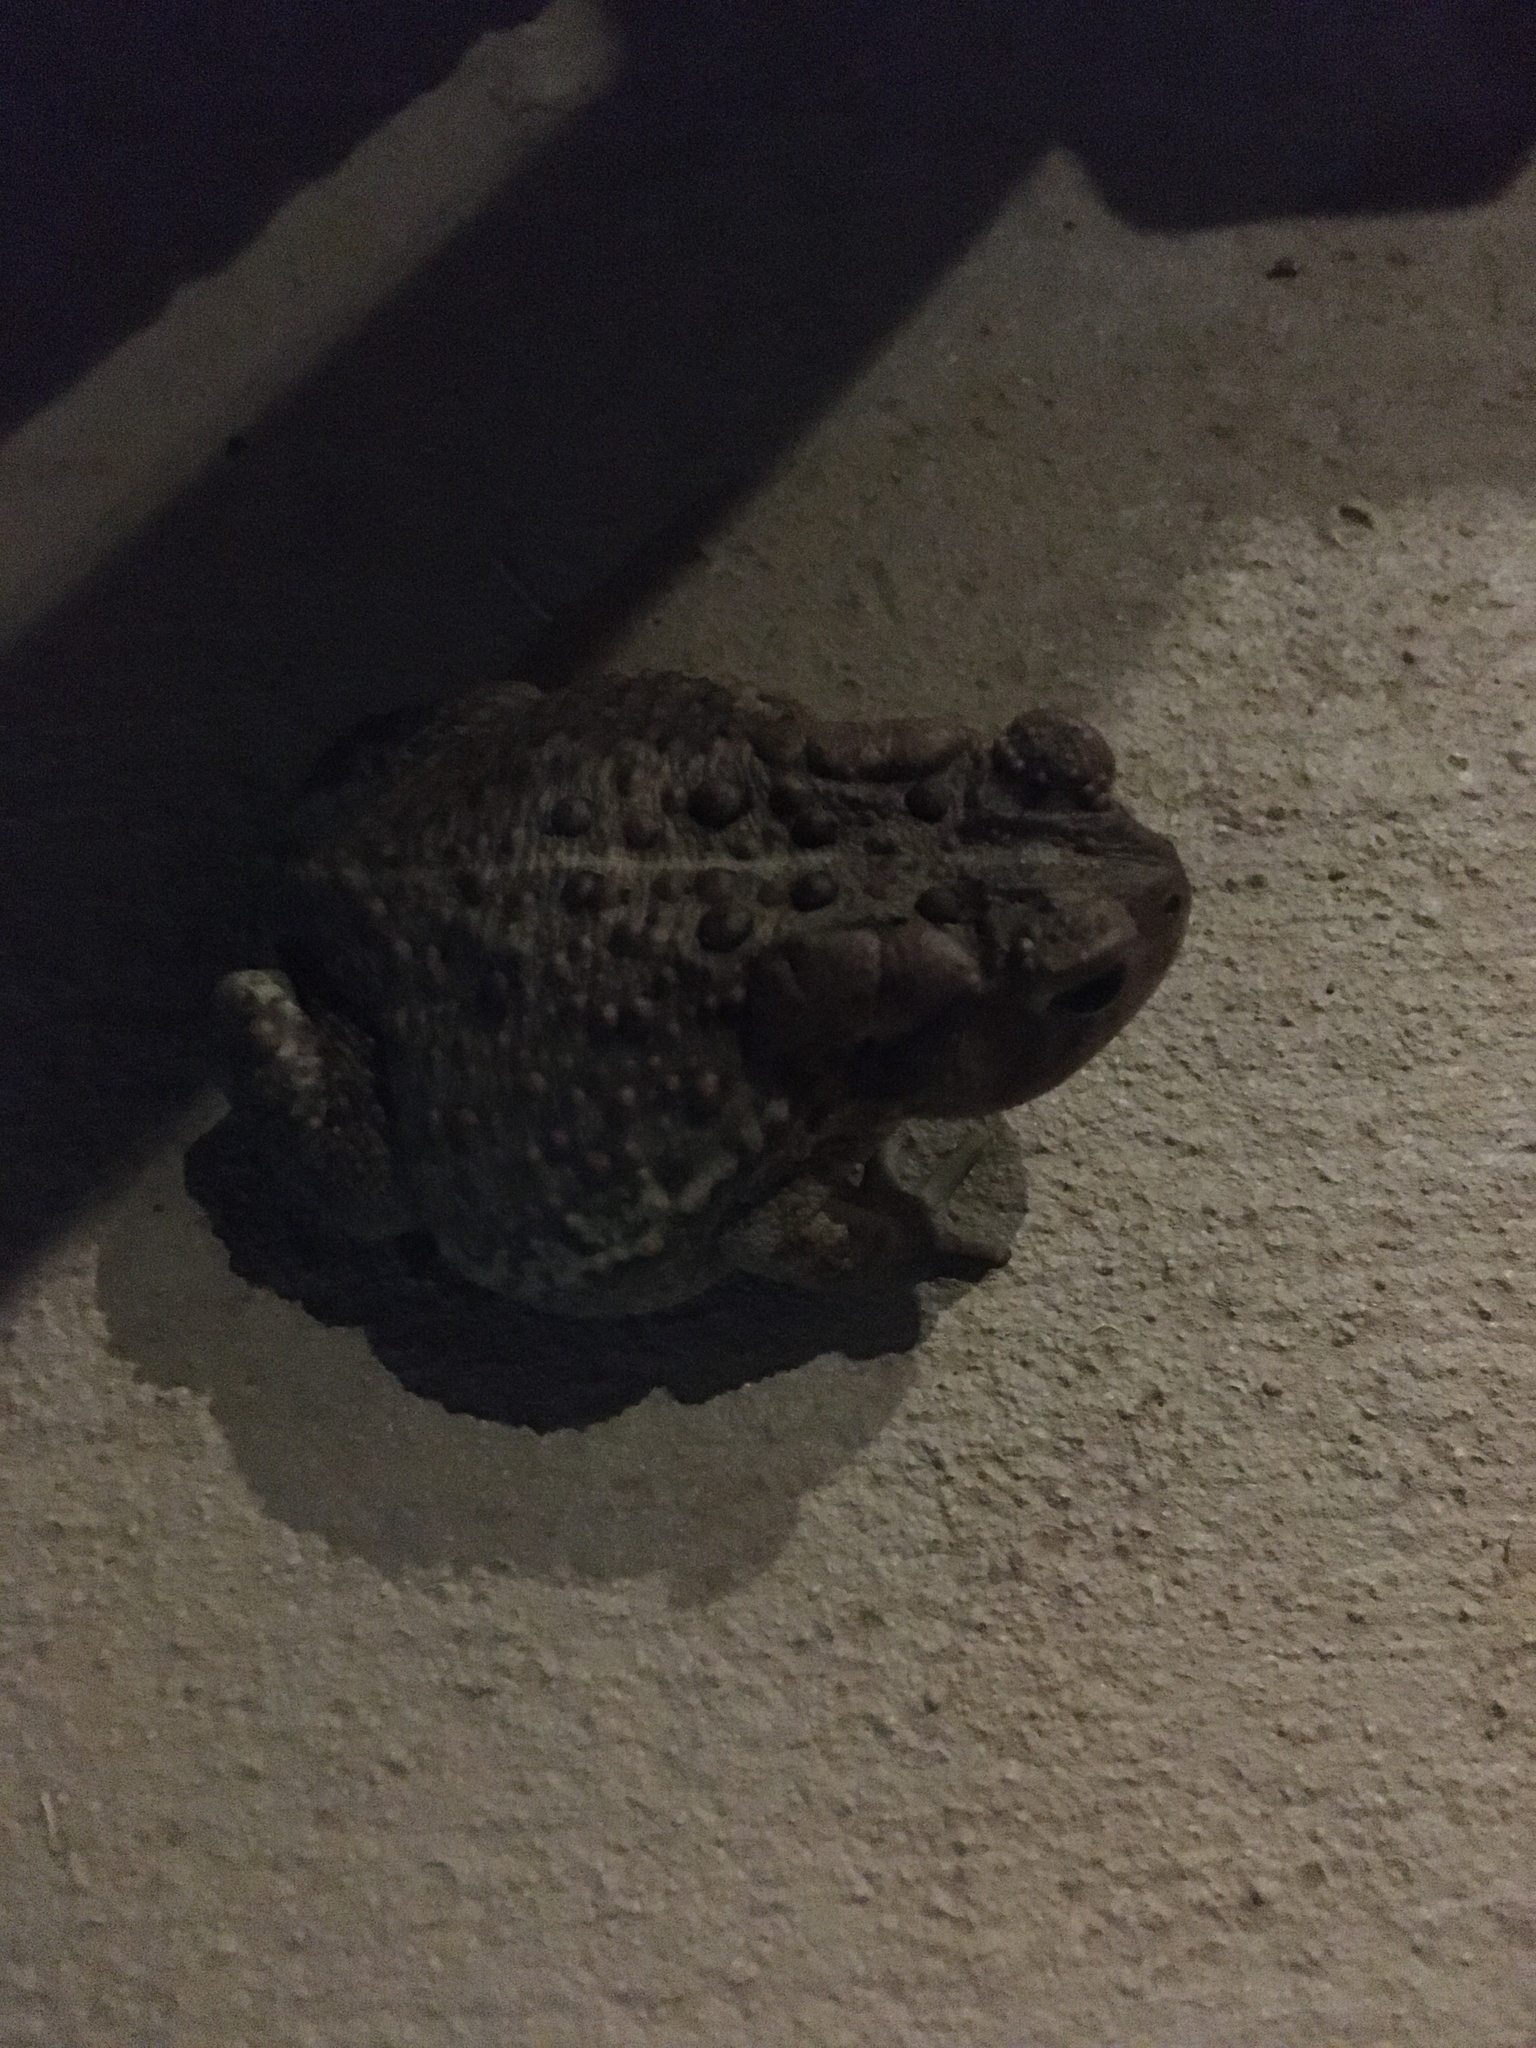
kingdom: Animalia
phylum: Chordata
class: Amphibia
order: Anura
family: Bufonidae
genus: Anaxyrus
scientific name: Anaxyrus americanus
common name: American toad
